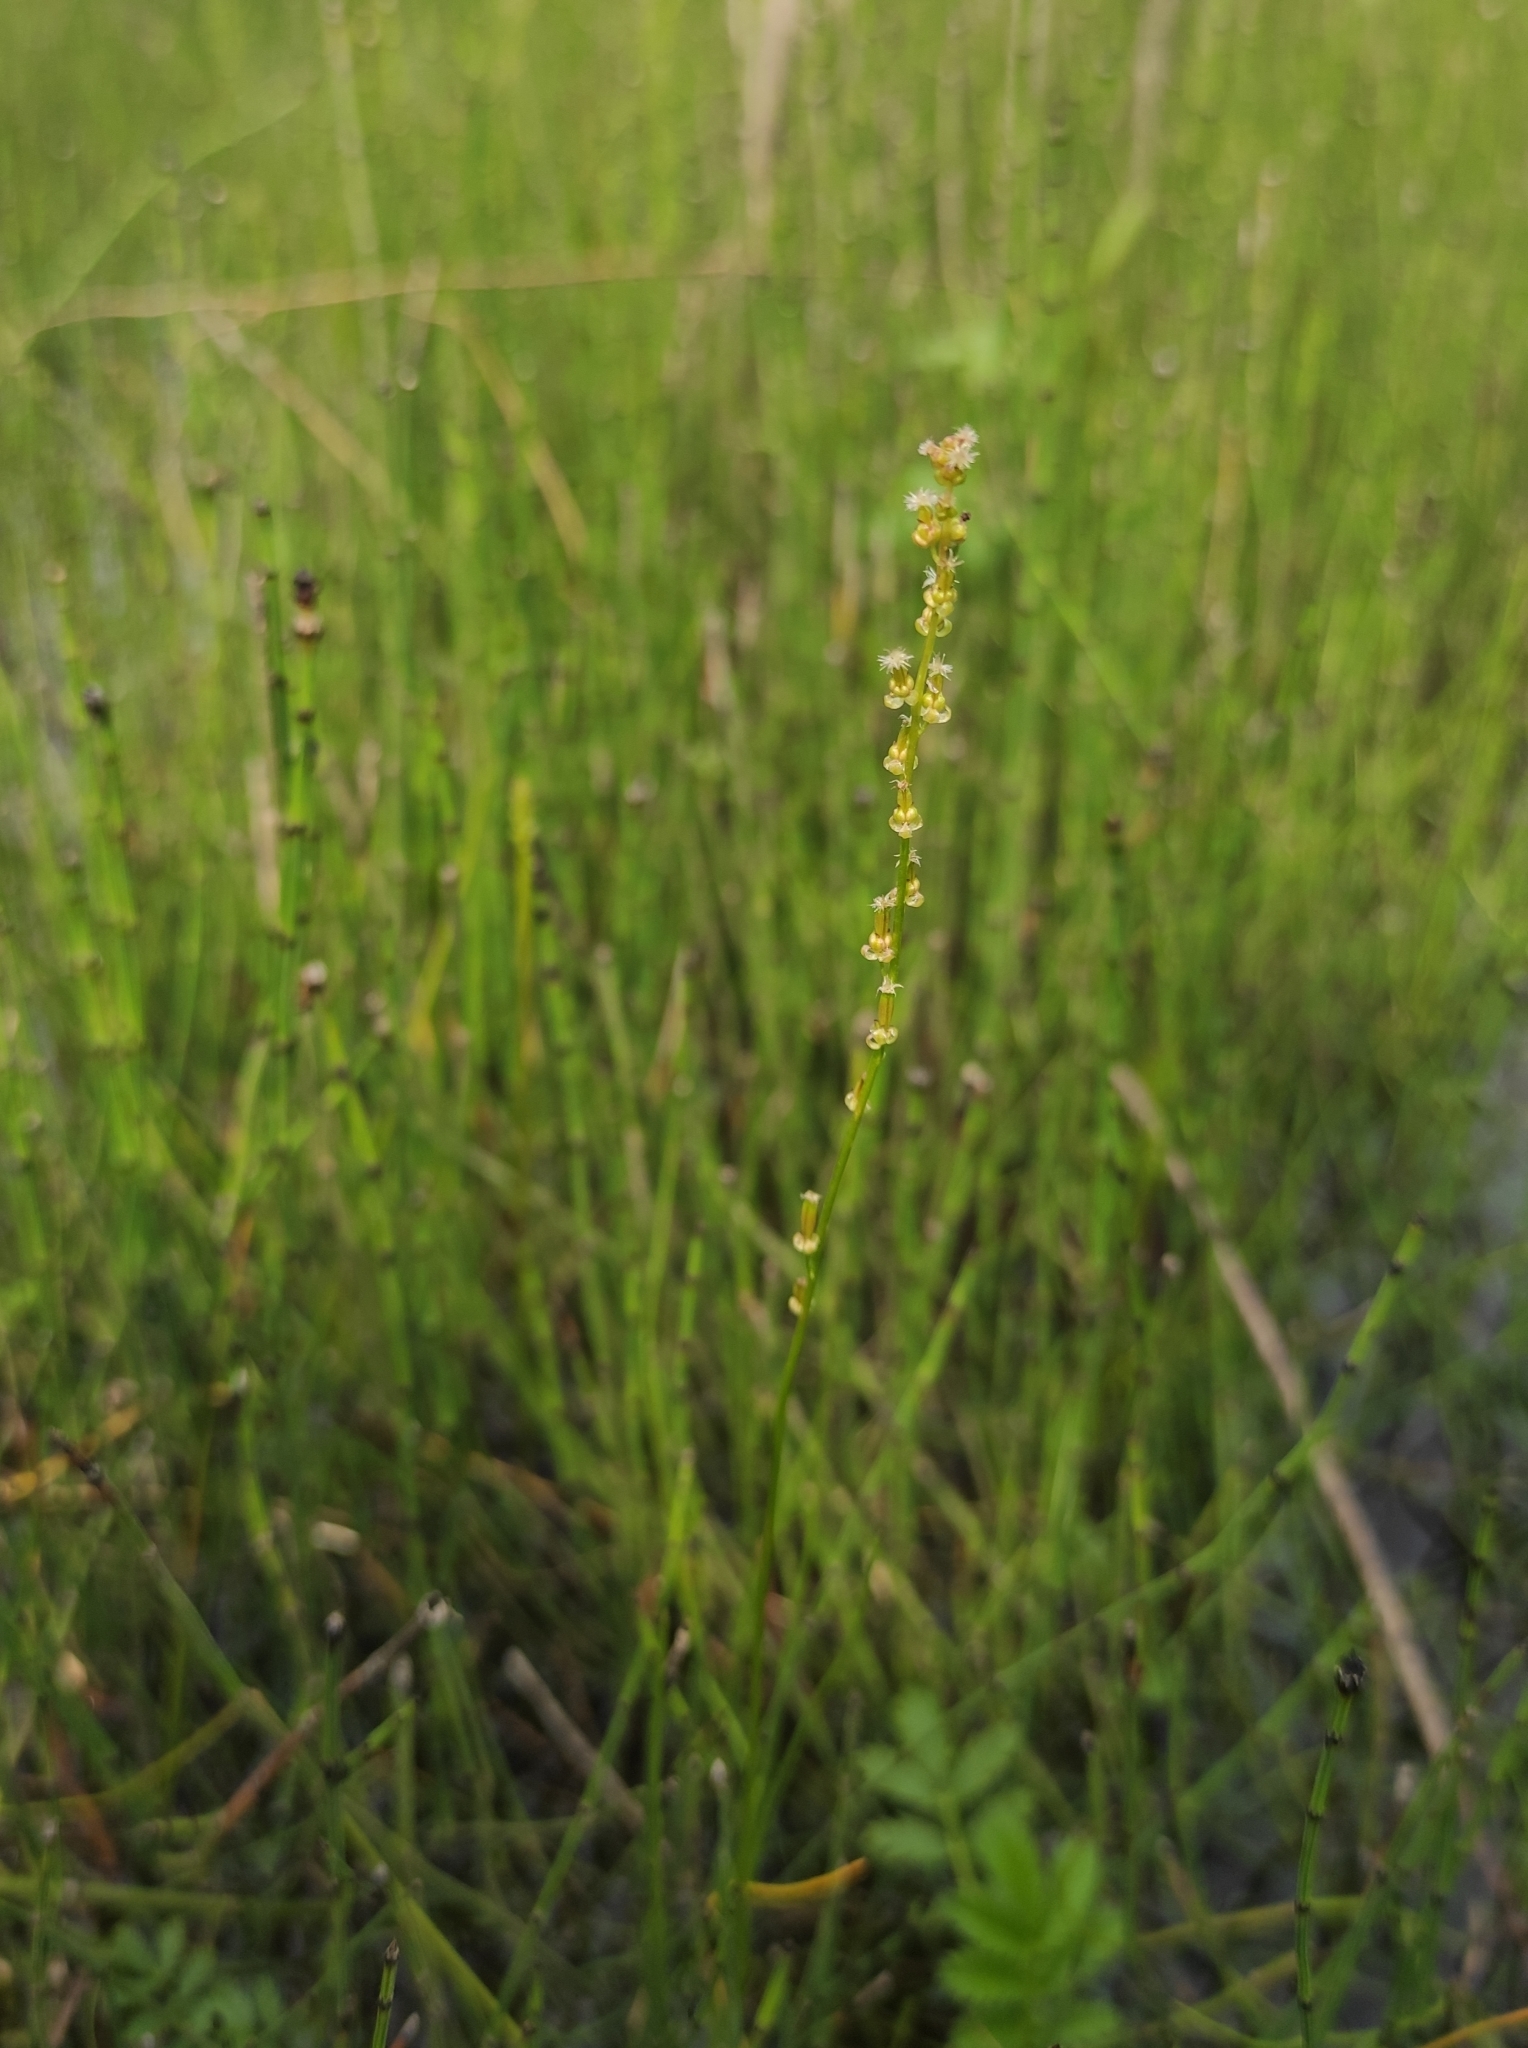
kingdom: Plantae
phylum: Tracheophyta
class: Liliopsida
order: Alismatales
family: Juncaginaceae
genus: Triglochin
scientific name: Triglochin palustris
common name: Marsh arrowgrass
